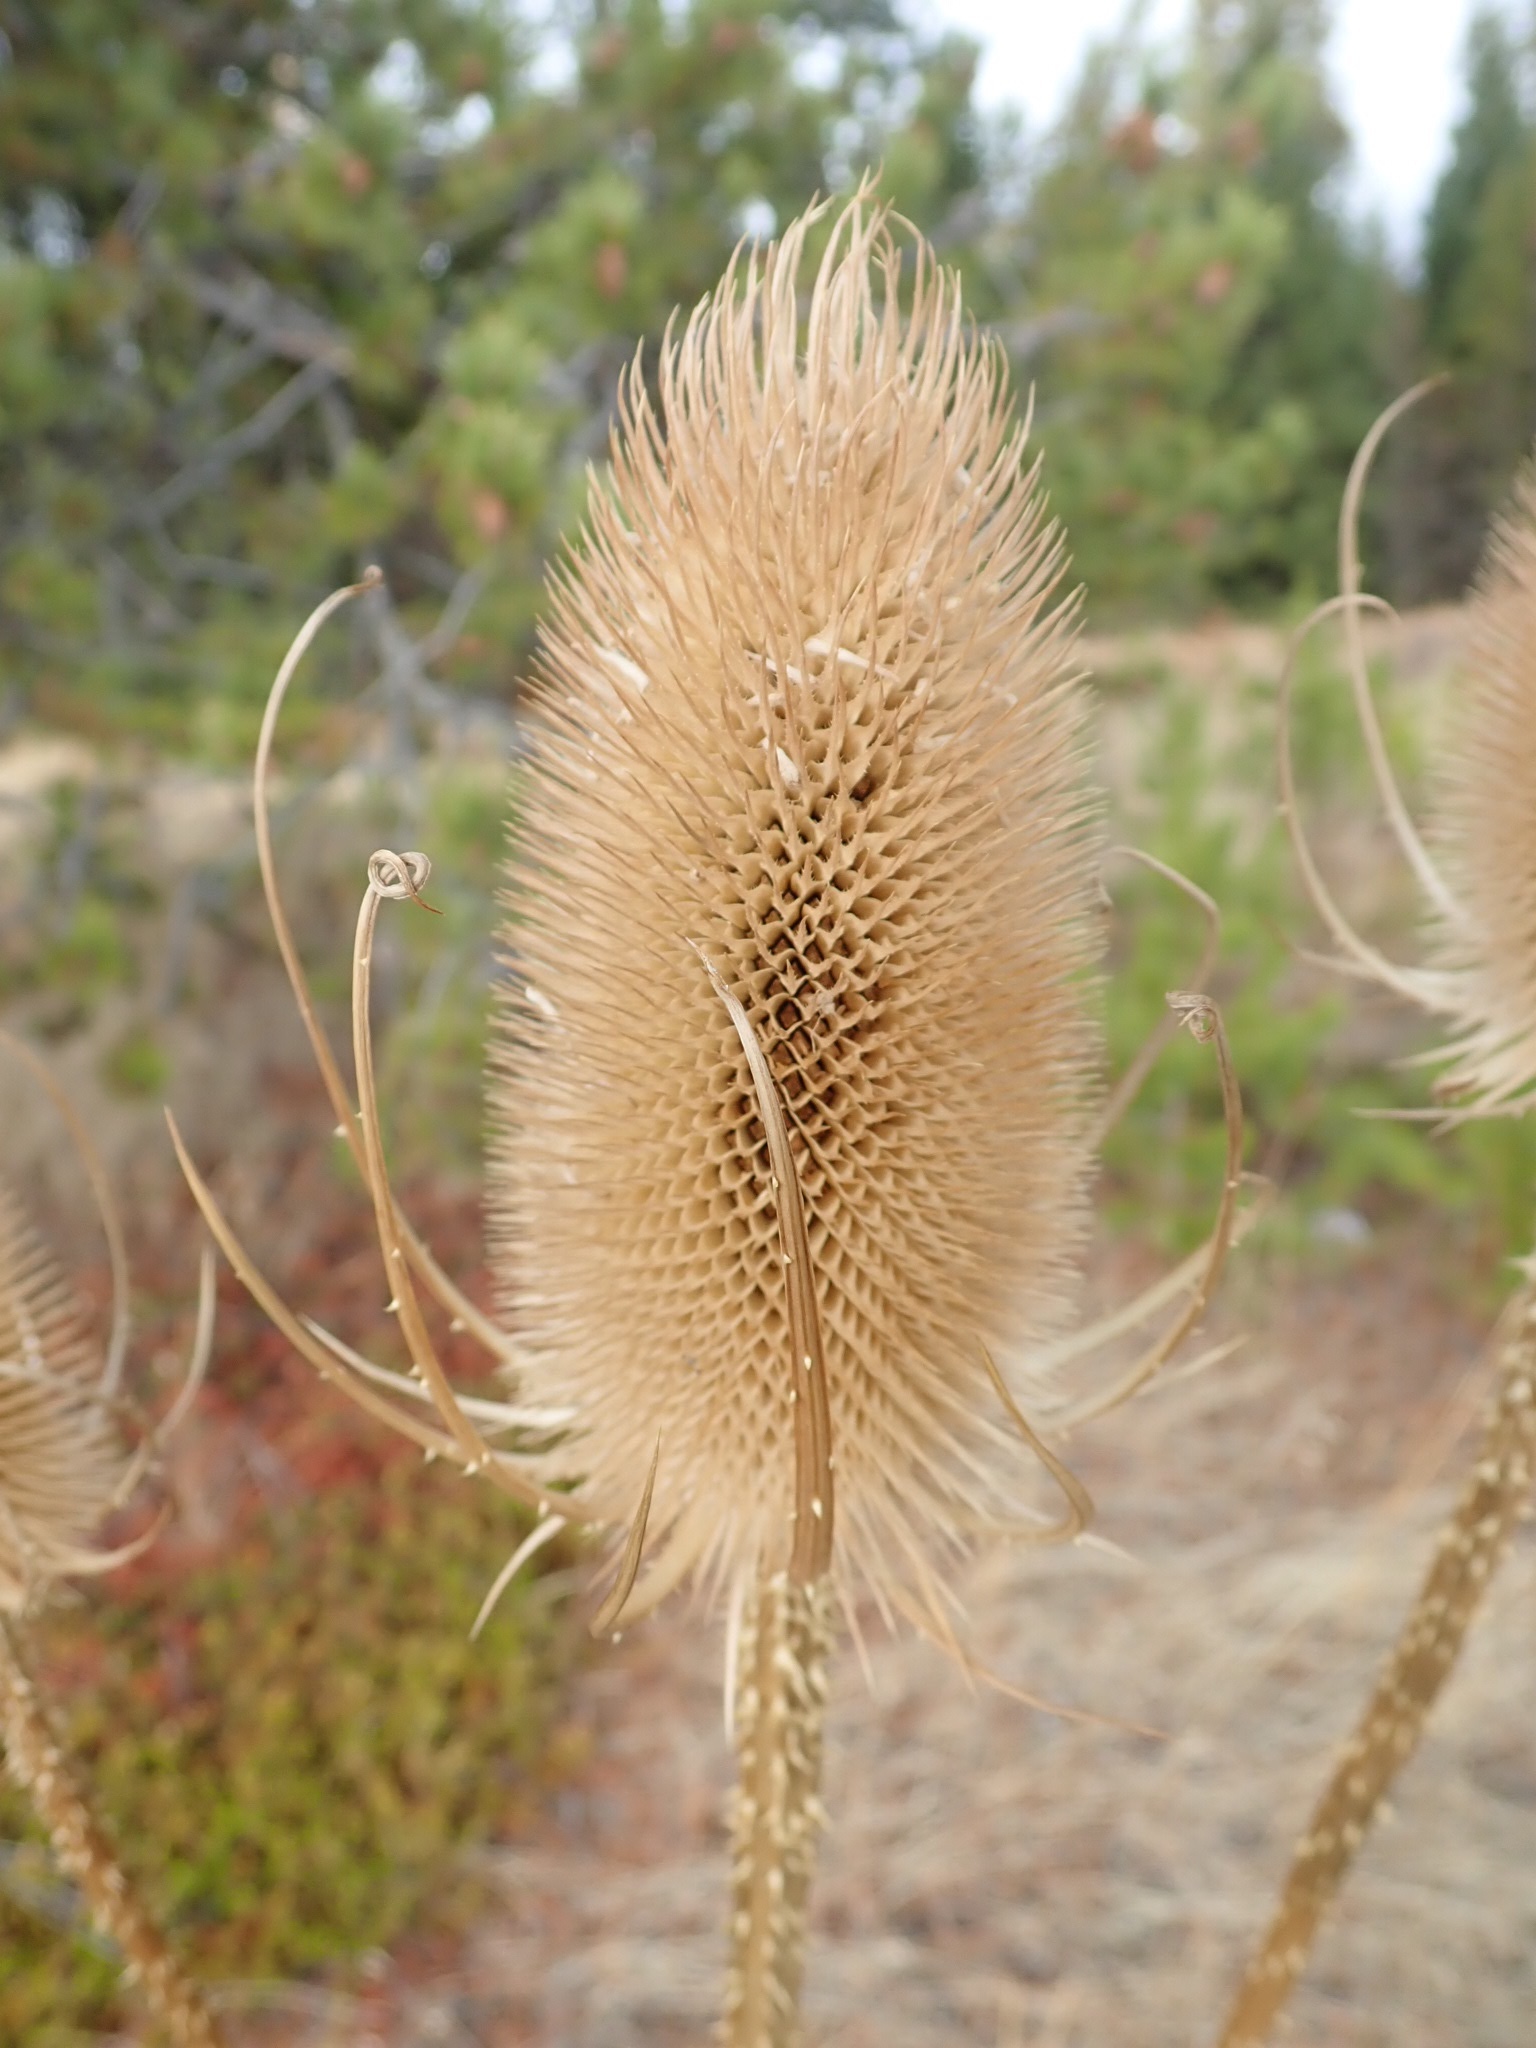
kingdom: Plantae
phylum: Tracheophyta
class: Magnoliopsida
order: Dipsacales
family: Caprifoliaceae
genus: Dipsacus
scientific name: Dipsacus fullonum
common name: Teasel
